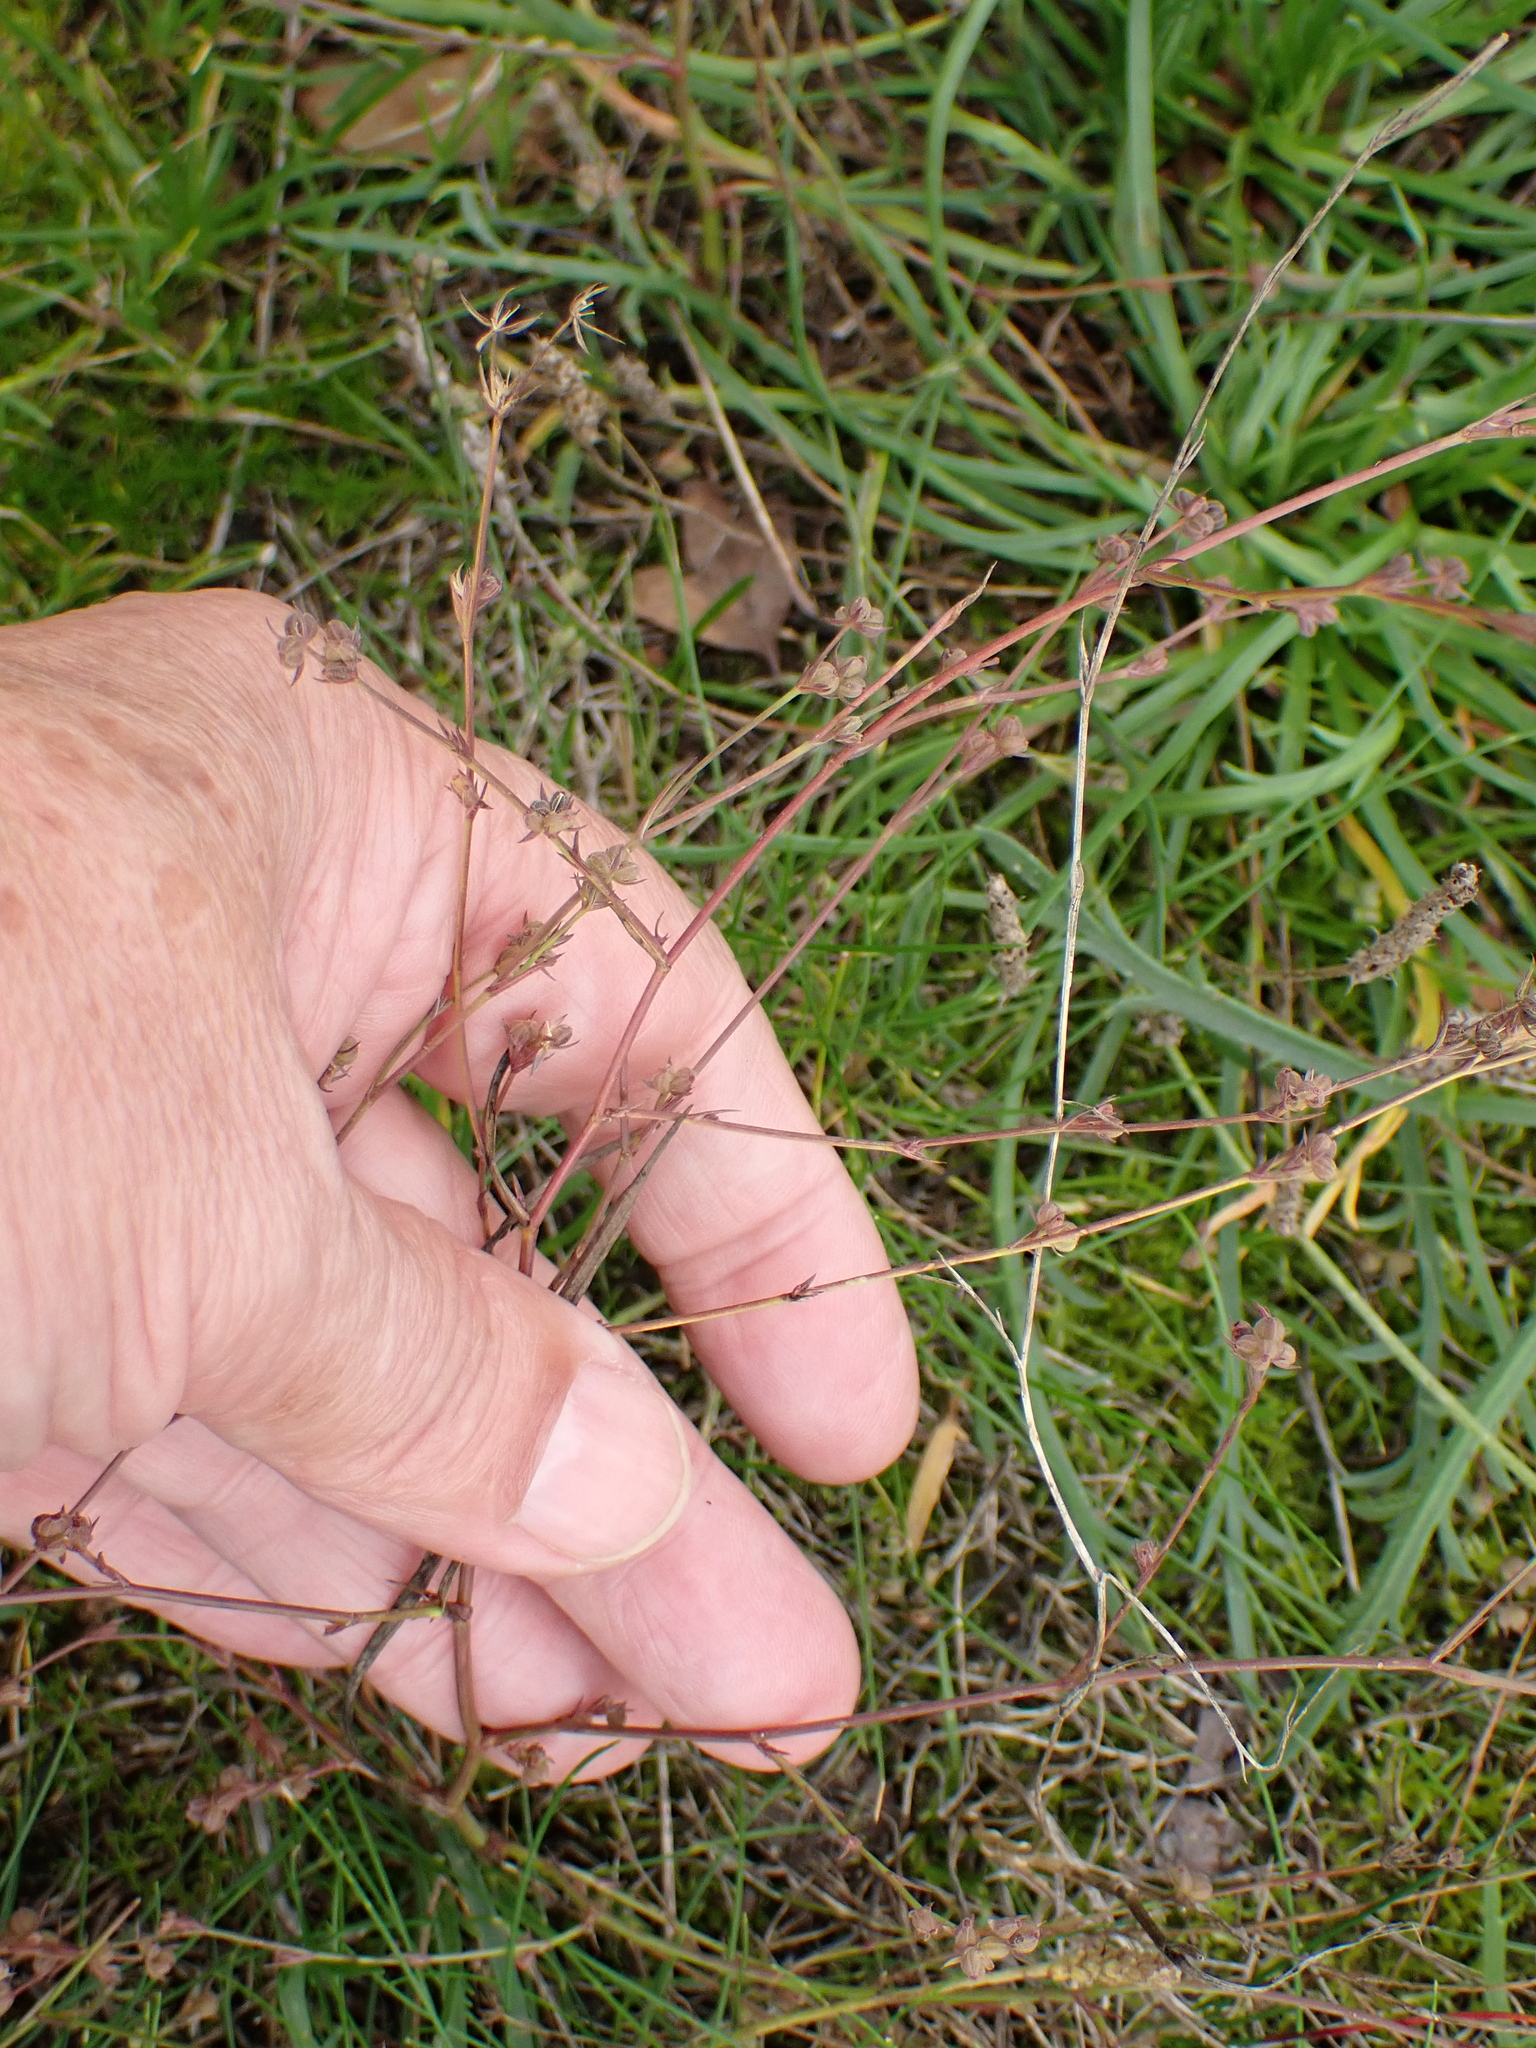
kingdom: Plantae
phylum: Tracheophyta
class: Magnoliopsida
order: Apiales
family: Apiaceae
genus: Bupleurum
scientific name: Bupleurum tenuissimum
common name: Slender hare's-ear
